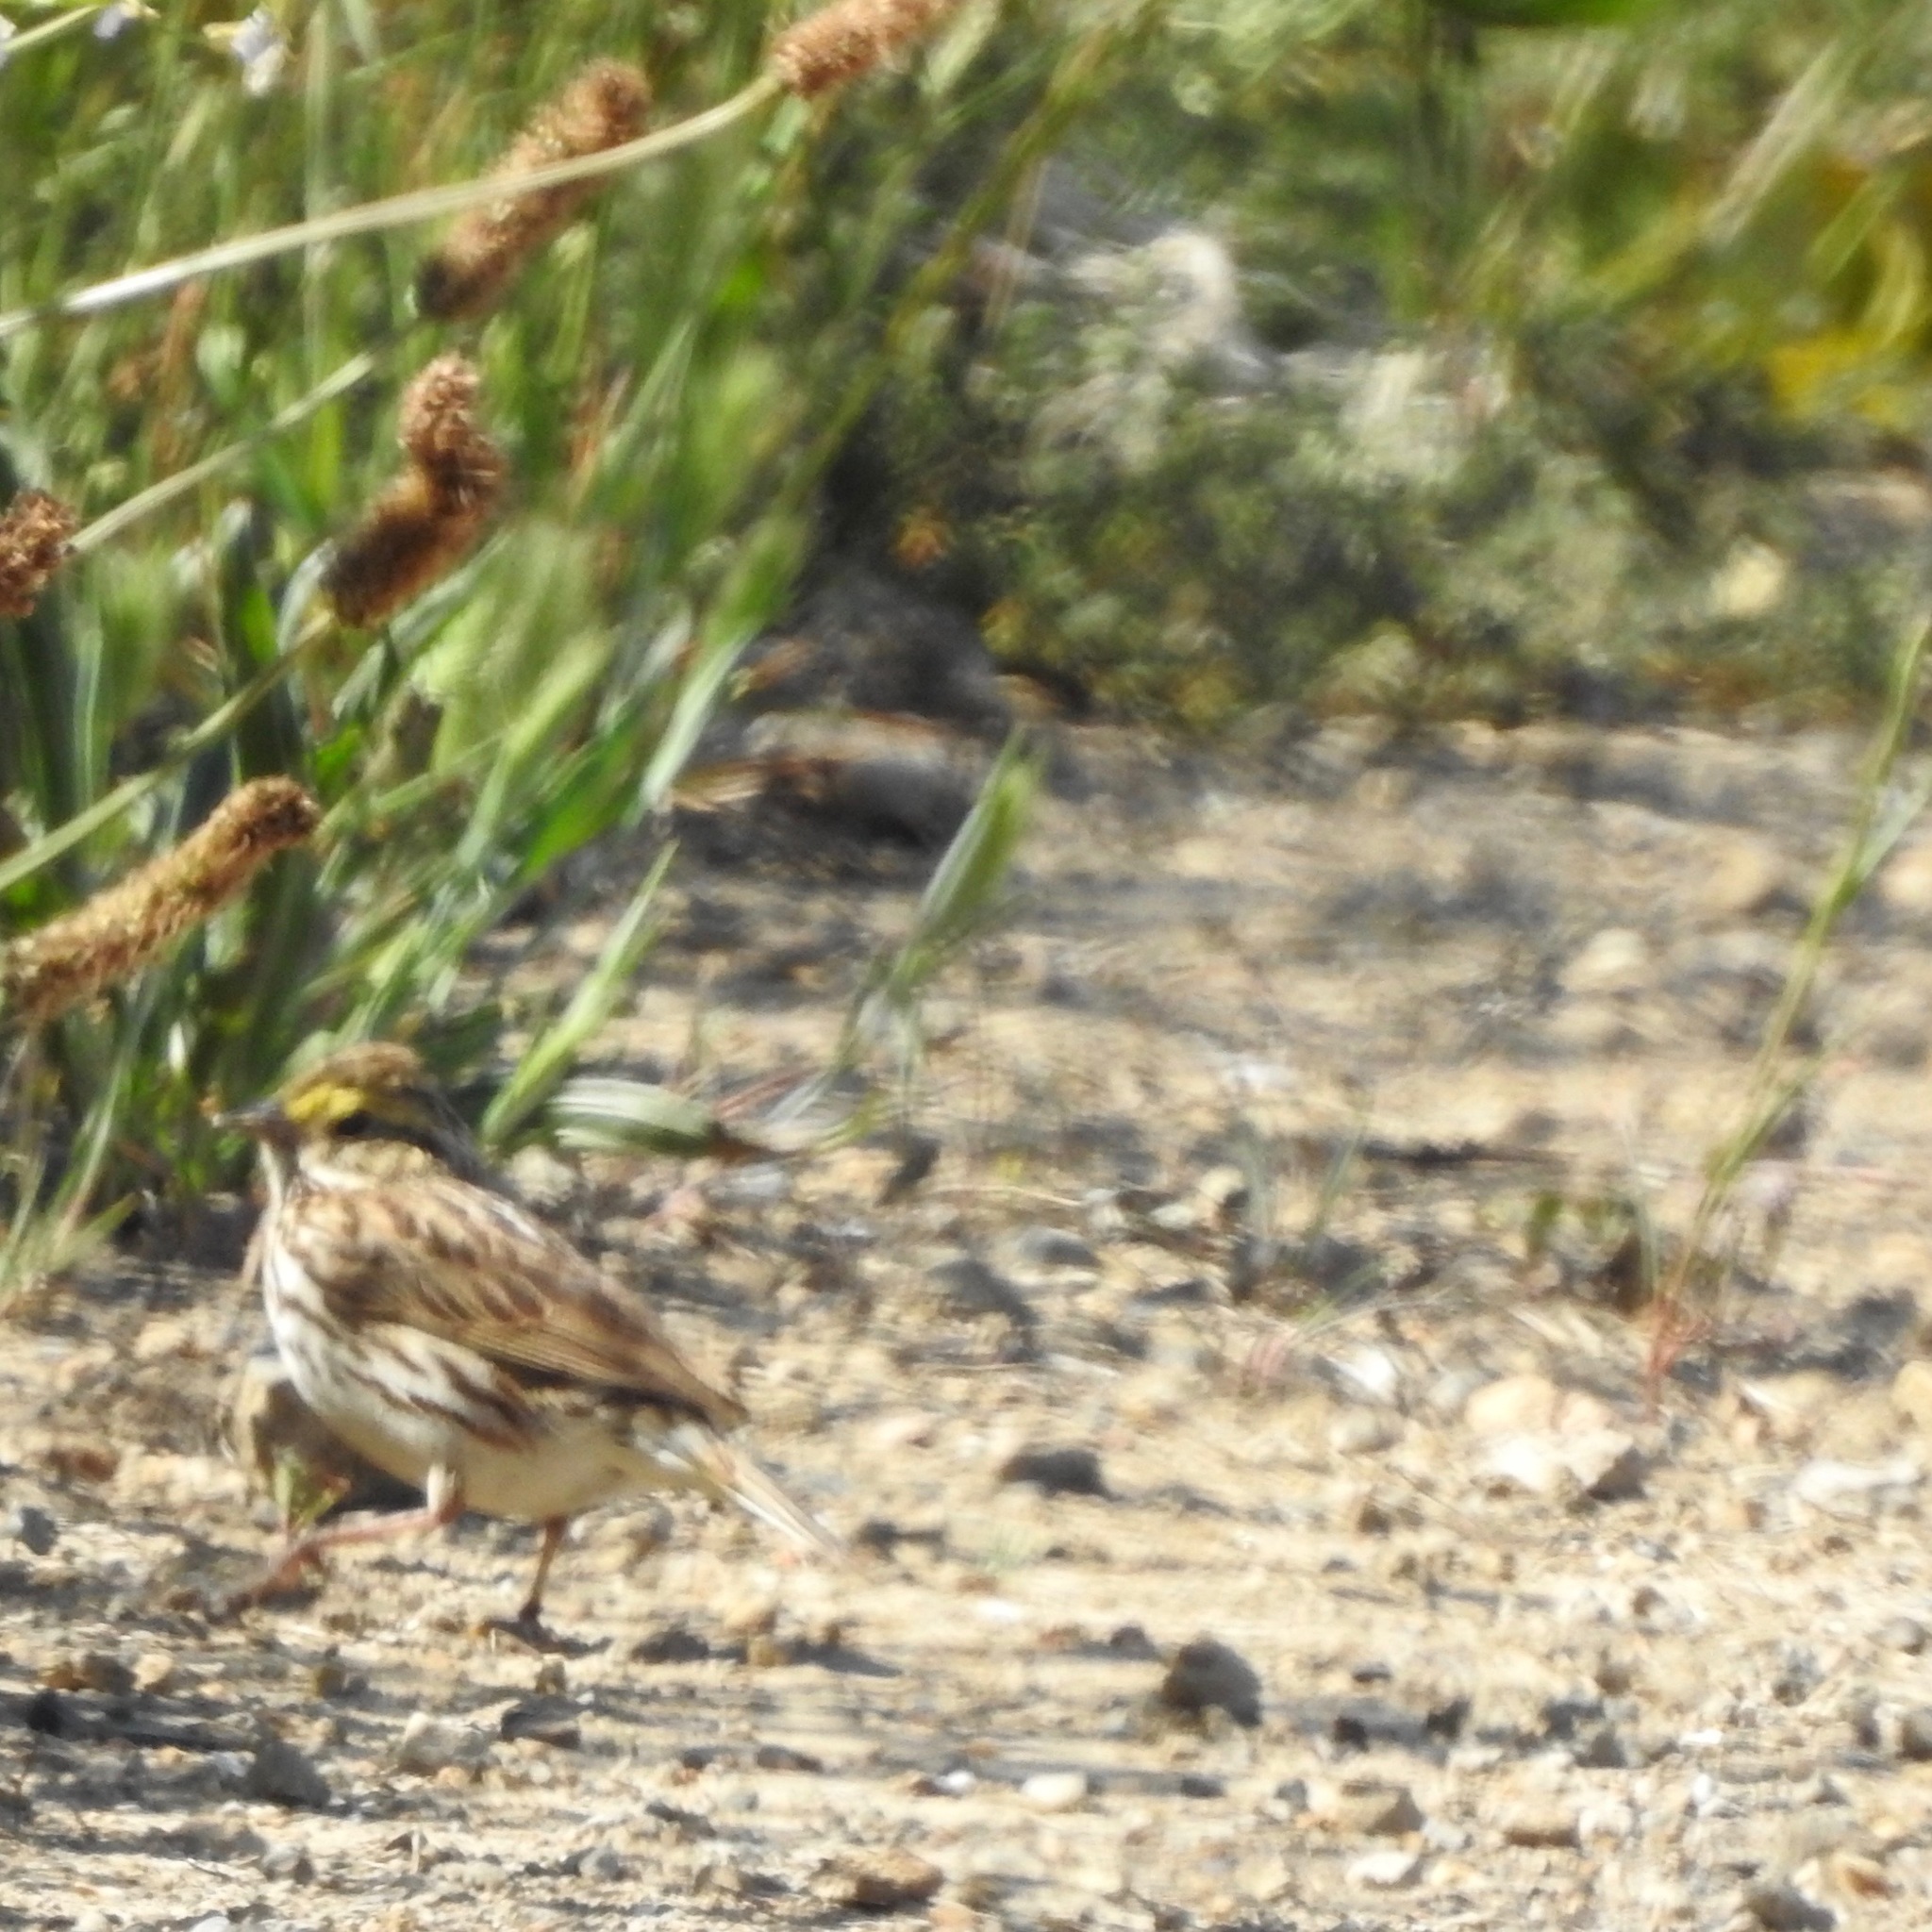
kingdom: Animalia
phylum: Chordata
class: Aves
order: Passeriformes
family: Passerellidae
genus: Passerculus
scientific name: Passerculus sandwichensis
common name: Savannah sparrow
